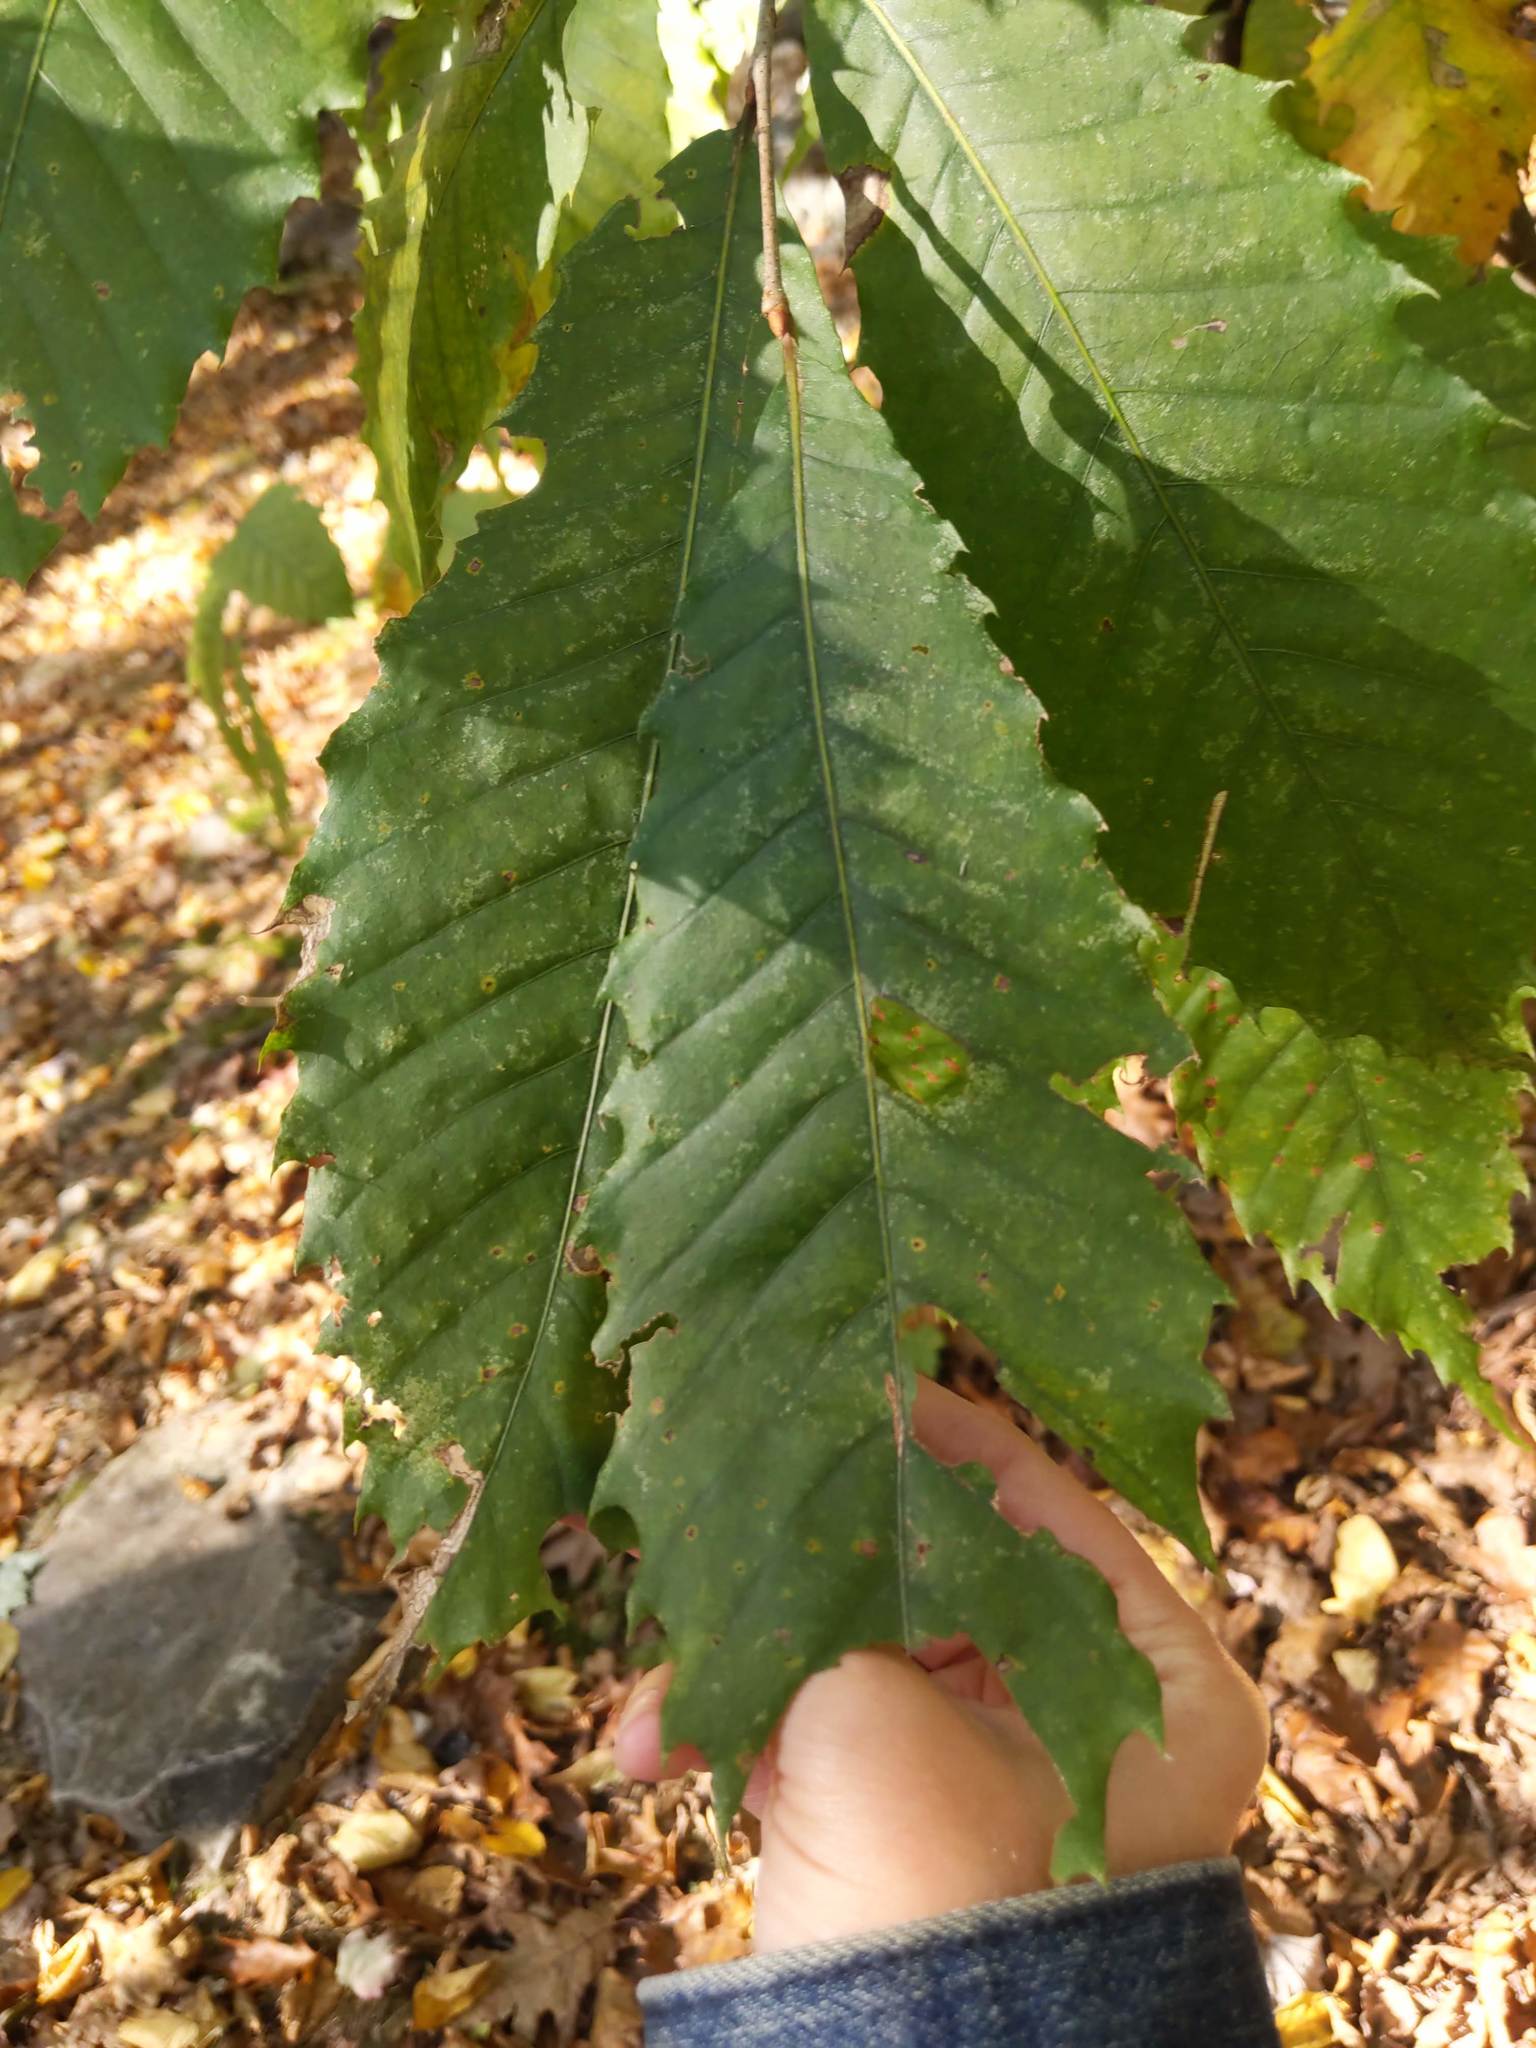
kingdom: Plantae
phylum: Tracheophyta
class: Magnoliopsida
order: Fagales
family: Fagaceae
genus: Castanea
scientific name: Castanea dentata
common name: American chestnut
